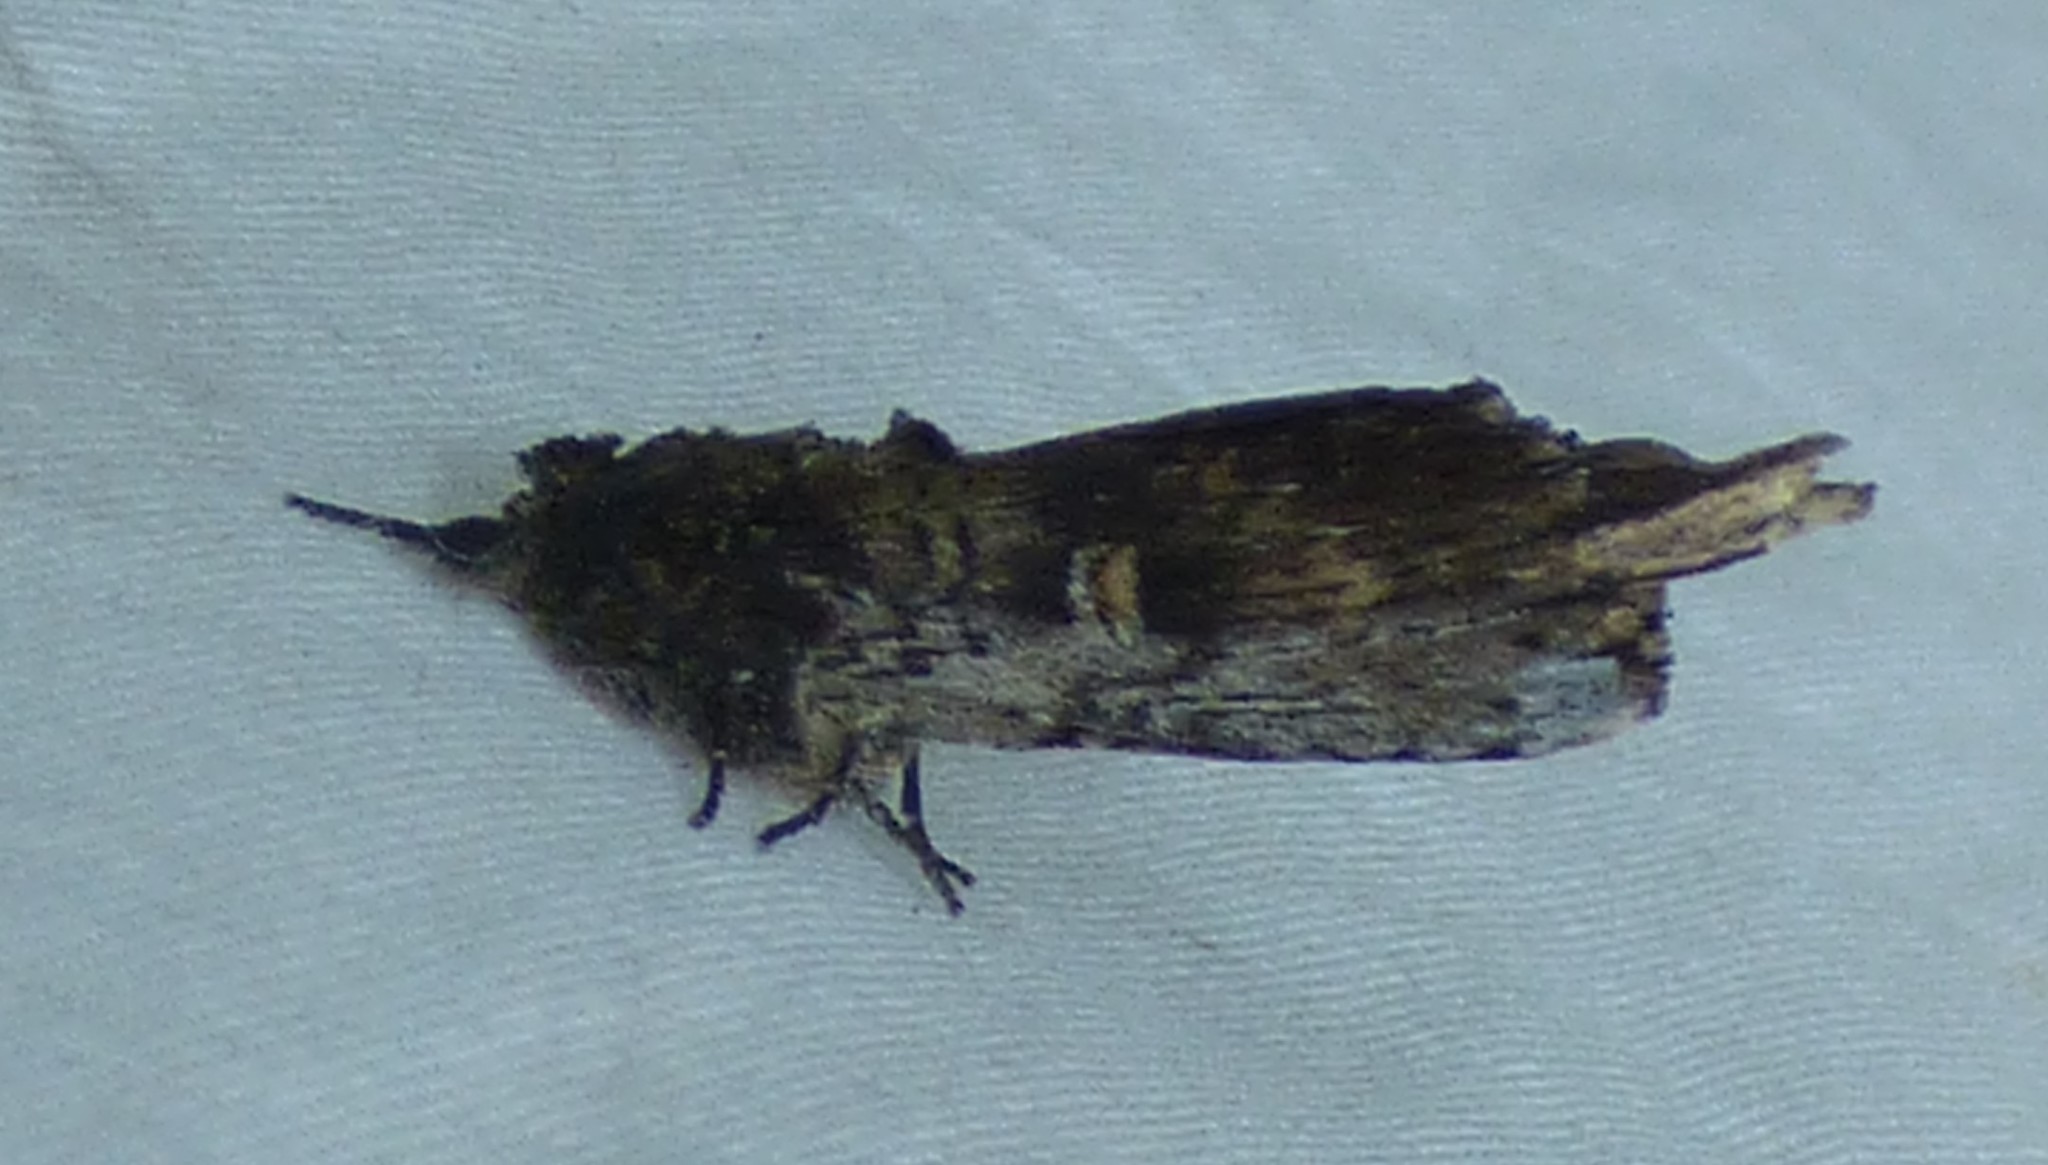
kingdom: Animalia
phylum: Arthropoda
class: Insecta
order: Lepidoptera
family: Notodontidae
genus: Schizura
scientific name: Schizura ipomaeae
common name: Morning-glory prominent
